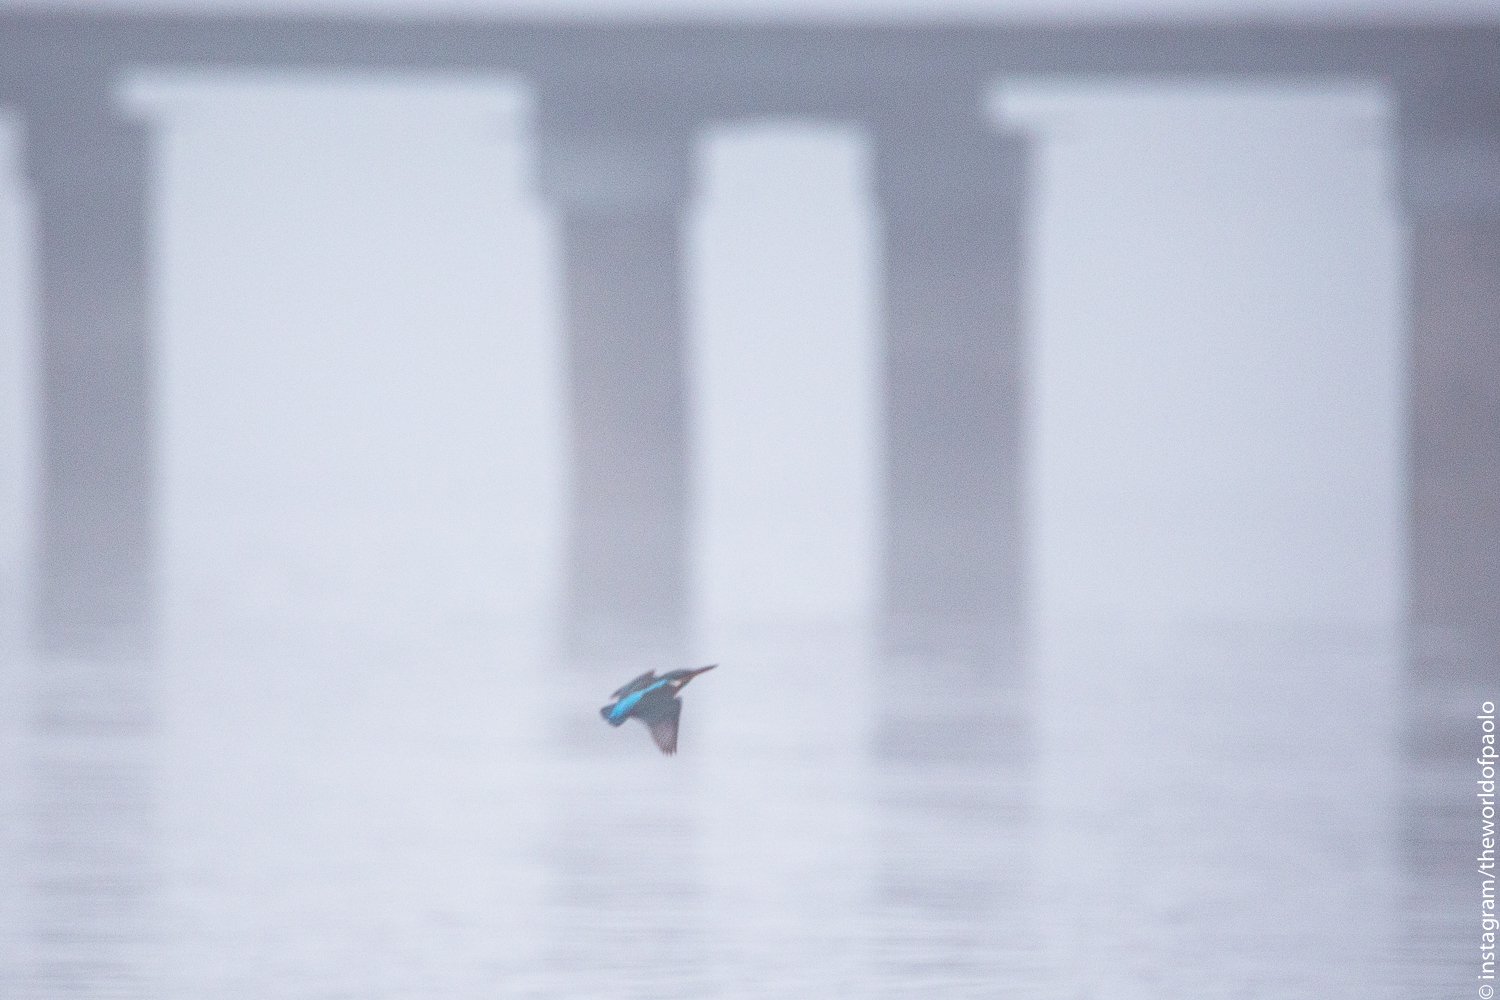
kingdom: Animalia
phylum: Chordata
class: Aves
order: Coraciiformes
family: Alcedinidae
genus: Alcedo
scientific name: Alcedo atthis
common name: Common kingfisher
